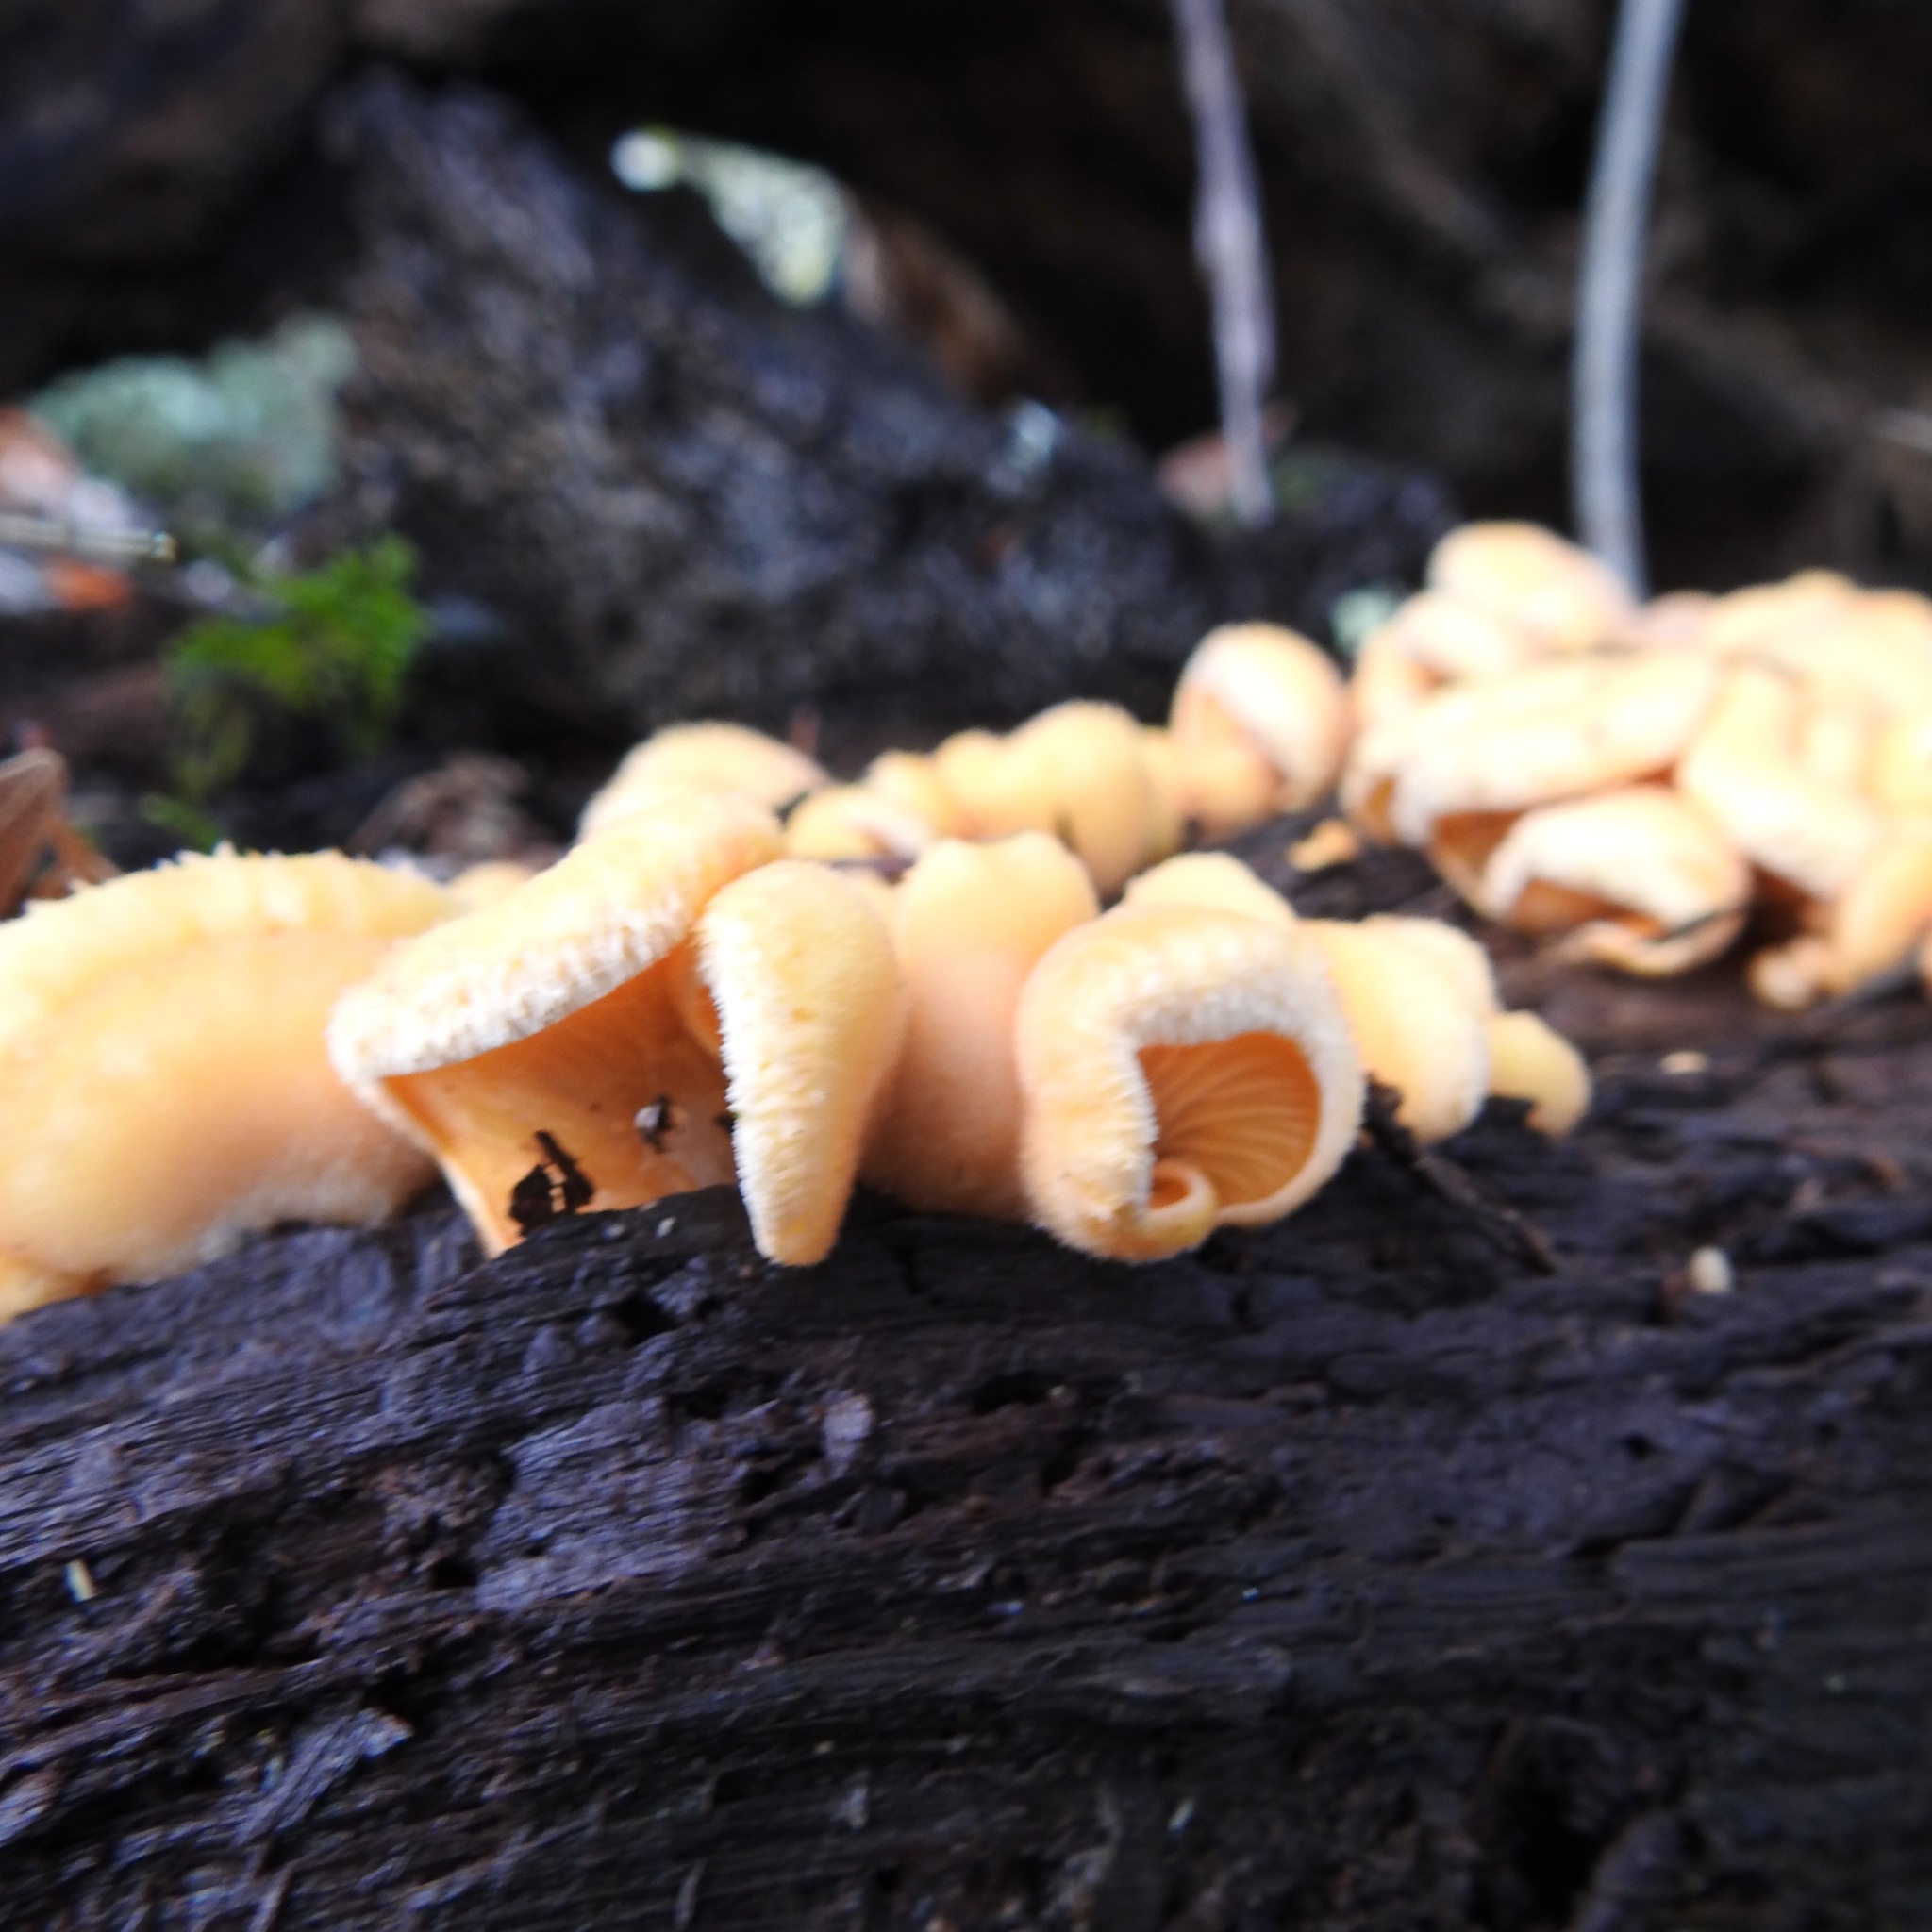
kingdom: Fungi
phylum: Basidiomycota
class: Agaricomycetes
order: Agaricales
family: Phyllotopsidaceae
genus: Phyllotopsis
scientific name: Phyllotopsis nidulans
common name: Orange mock oyster
